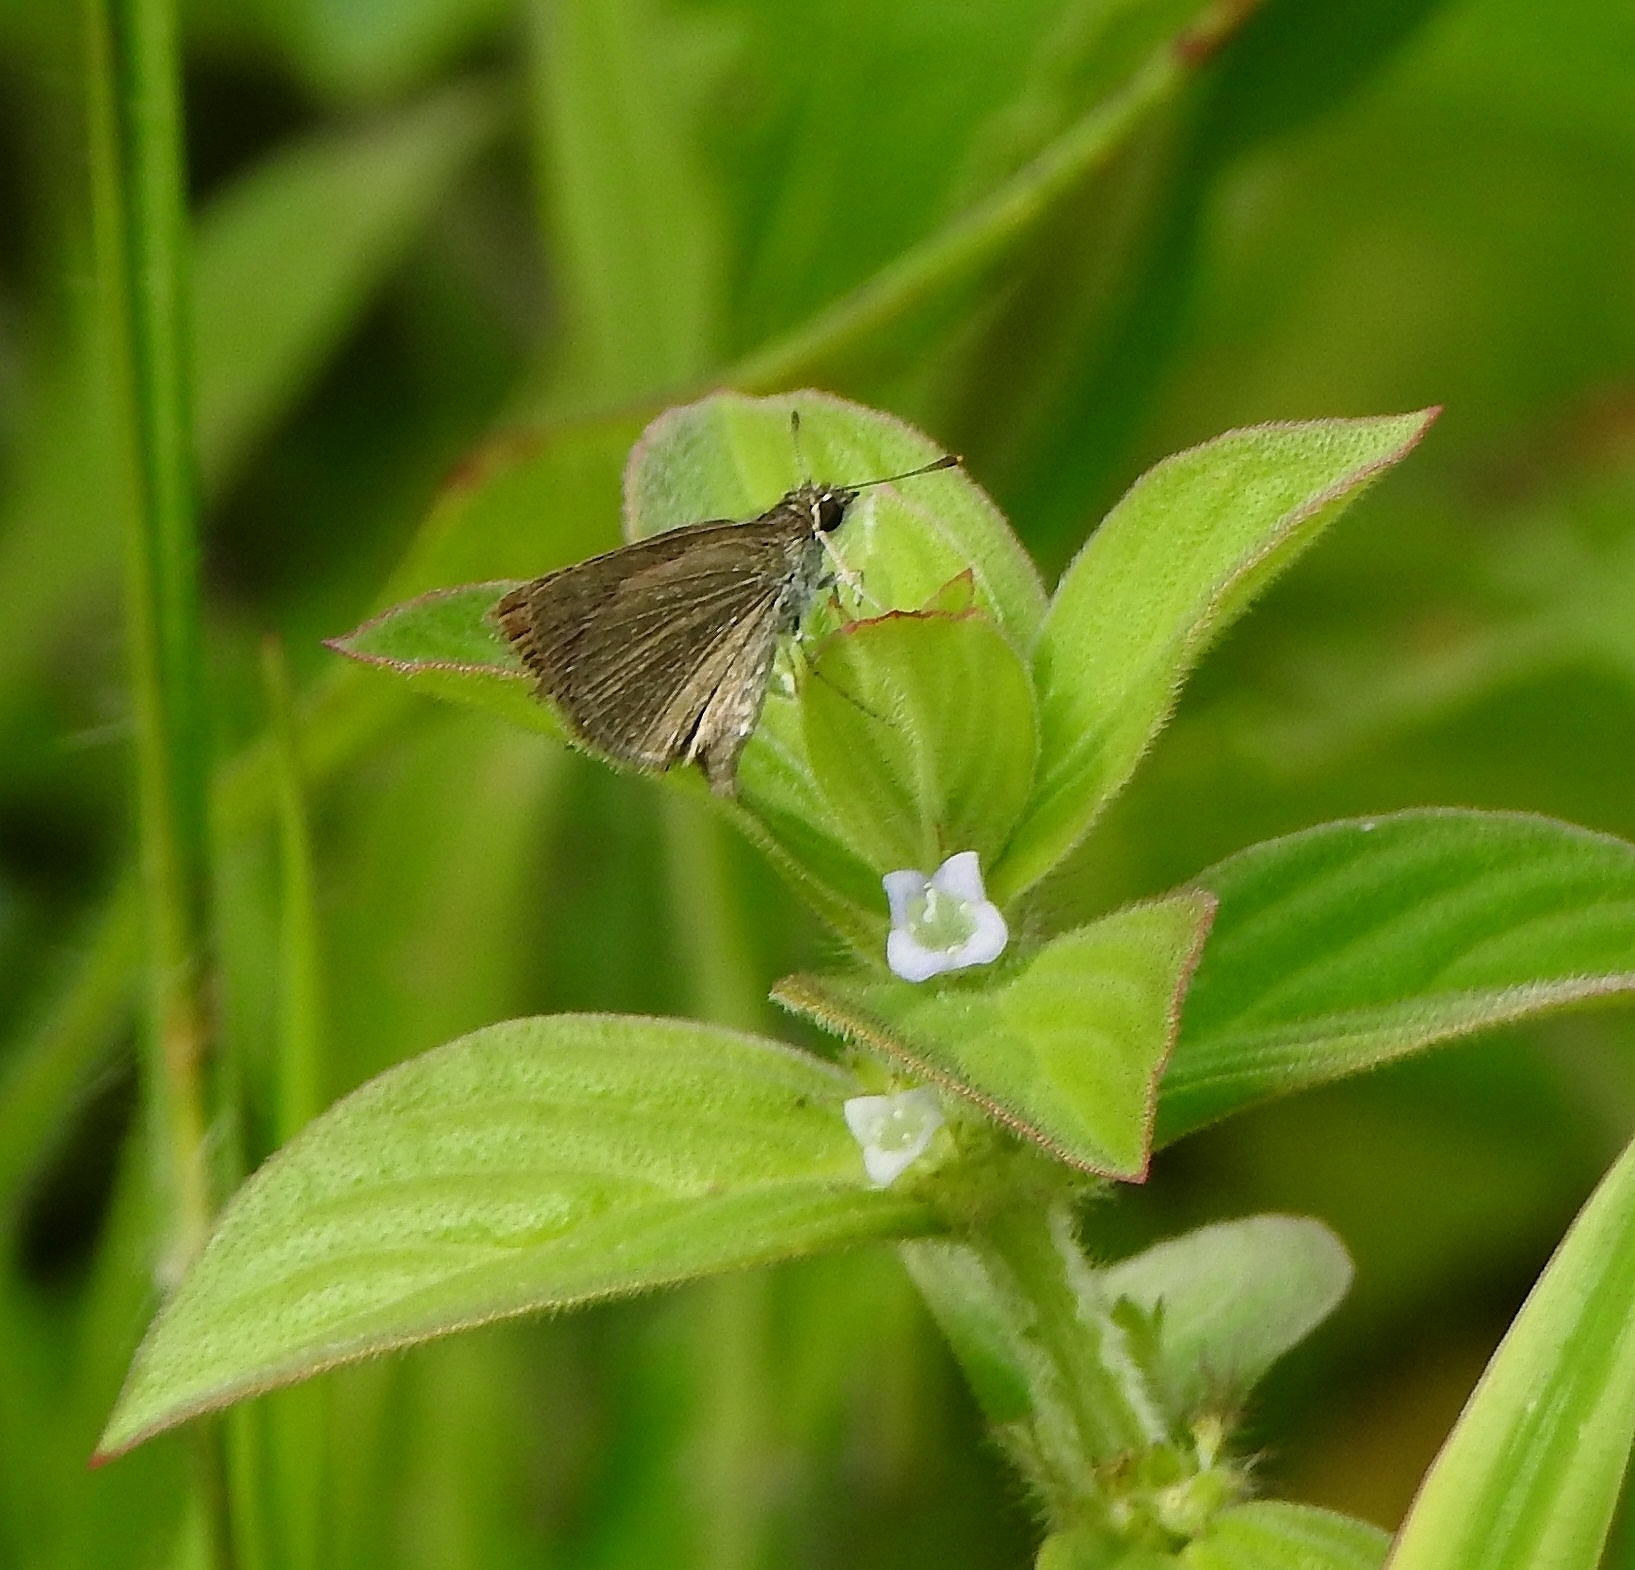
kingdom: Animalia
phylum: Arthropoda
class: Insecta
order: Lepidoptera
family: Hesperiidae
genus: Aeromachus
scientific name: Aeromachus pygmaeus
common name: Pygmy scrub hopper
